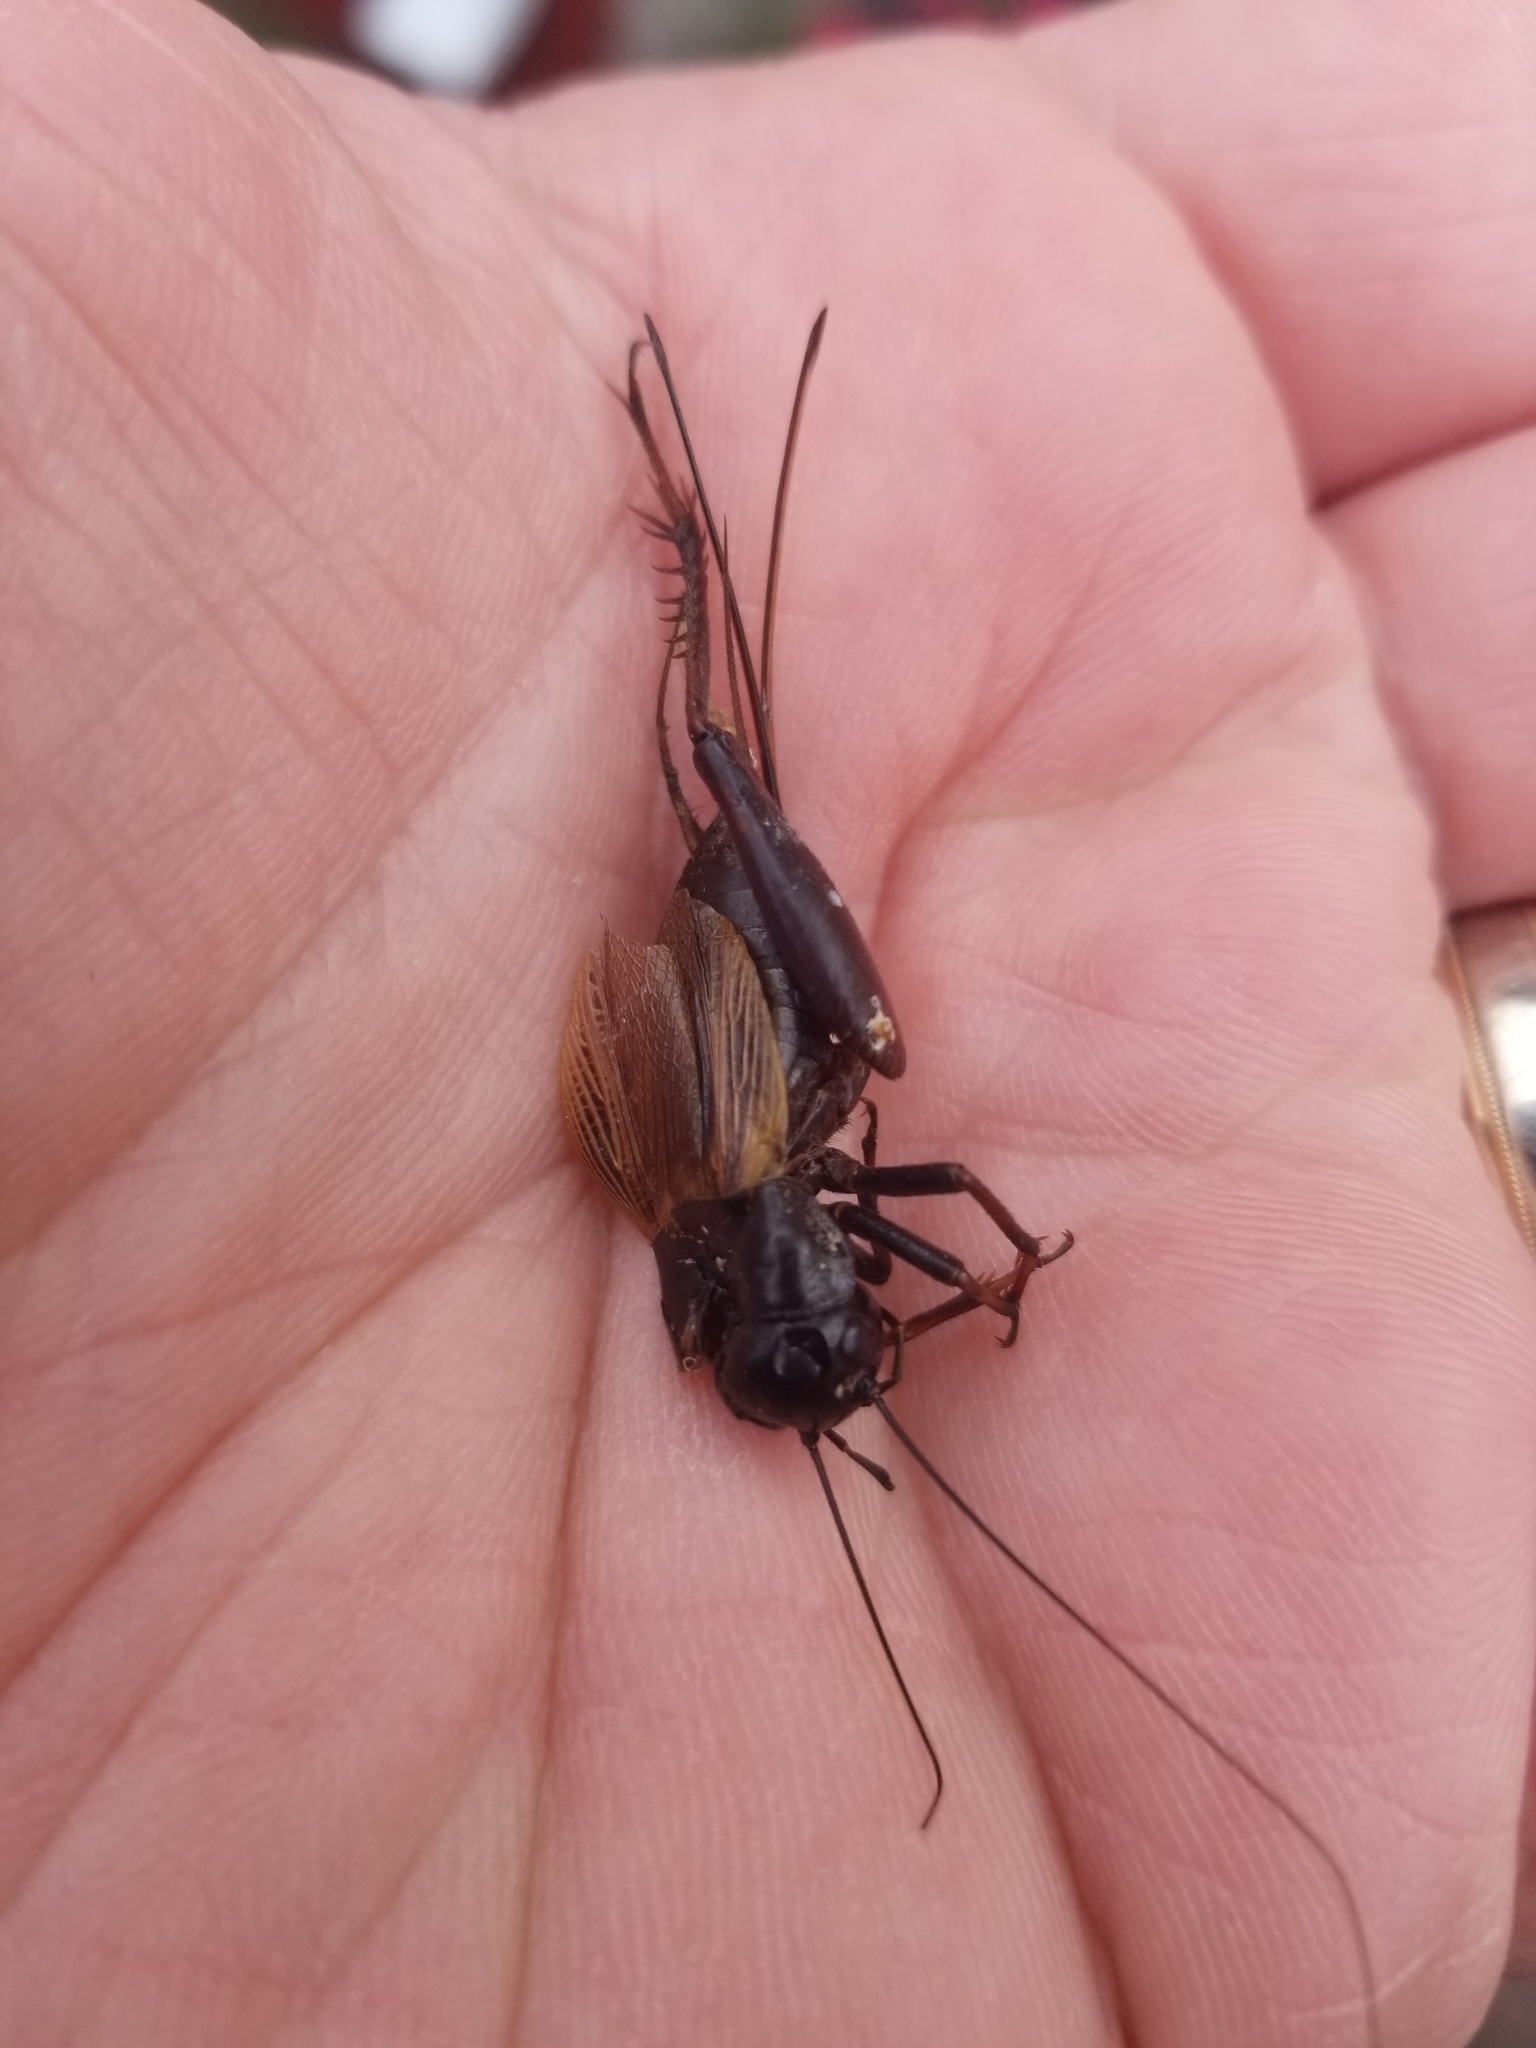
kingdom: Animalia
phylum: Arthropoda
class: Insecta
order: Orthoptera
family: Gryllidae
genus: Gryllus
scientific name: Gryllus pennsylvanicus
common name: Fall field cricket
